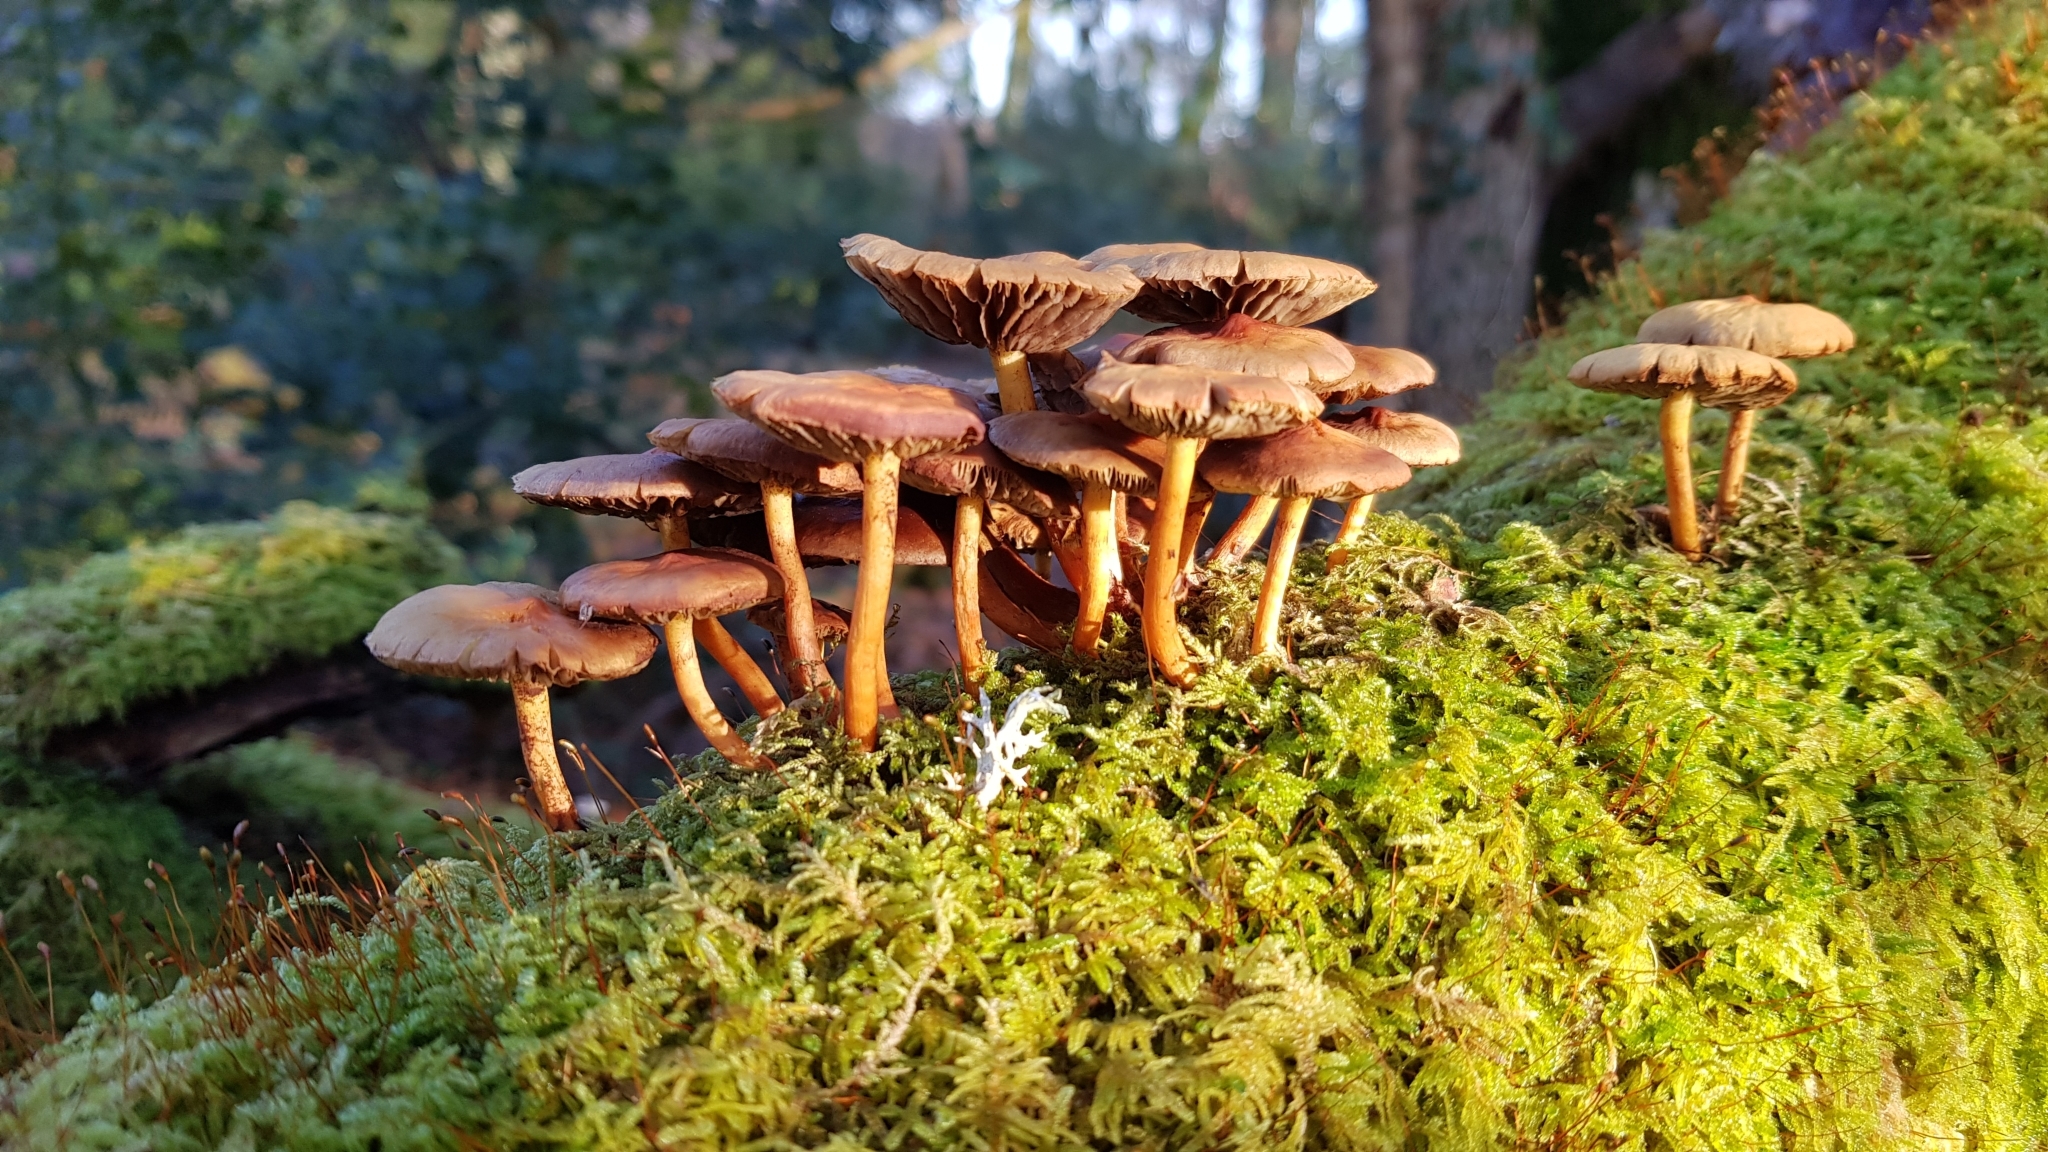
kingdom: Fungi
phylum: Basidiomycota
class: Agaricomycetes
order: Agaricales
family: Omphalotaceae
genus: Collybiopsis
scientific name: Collybiopsis villosipes
